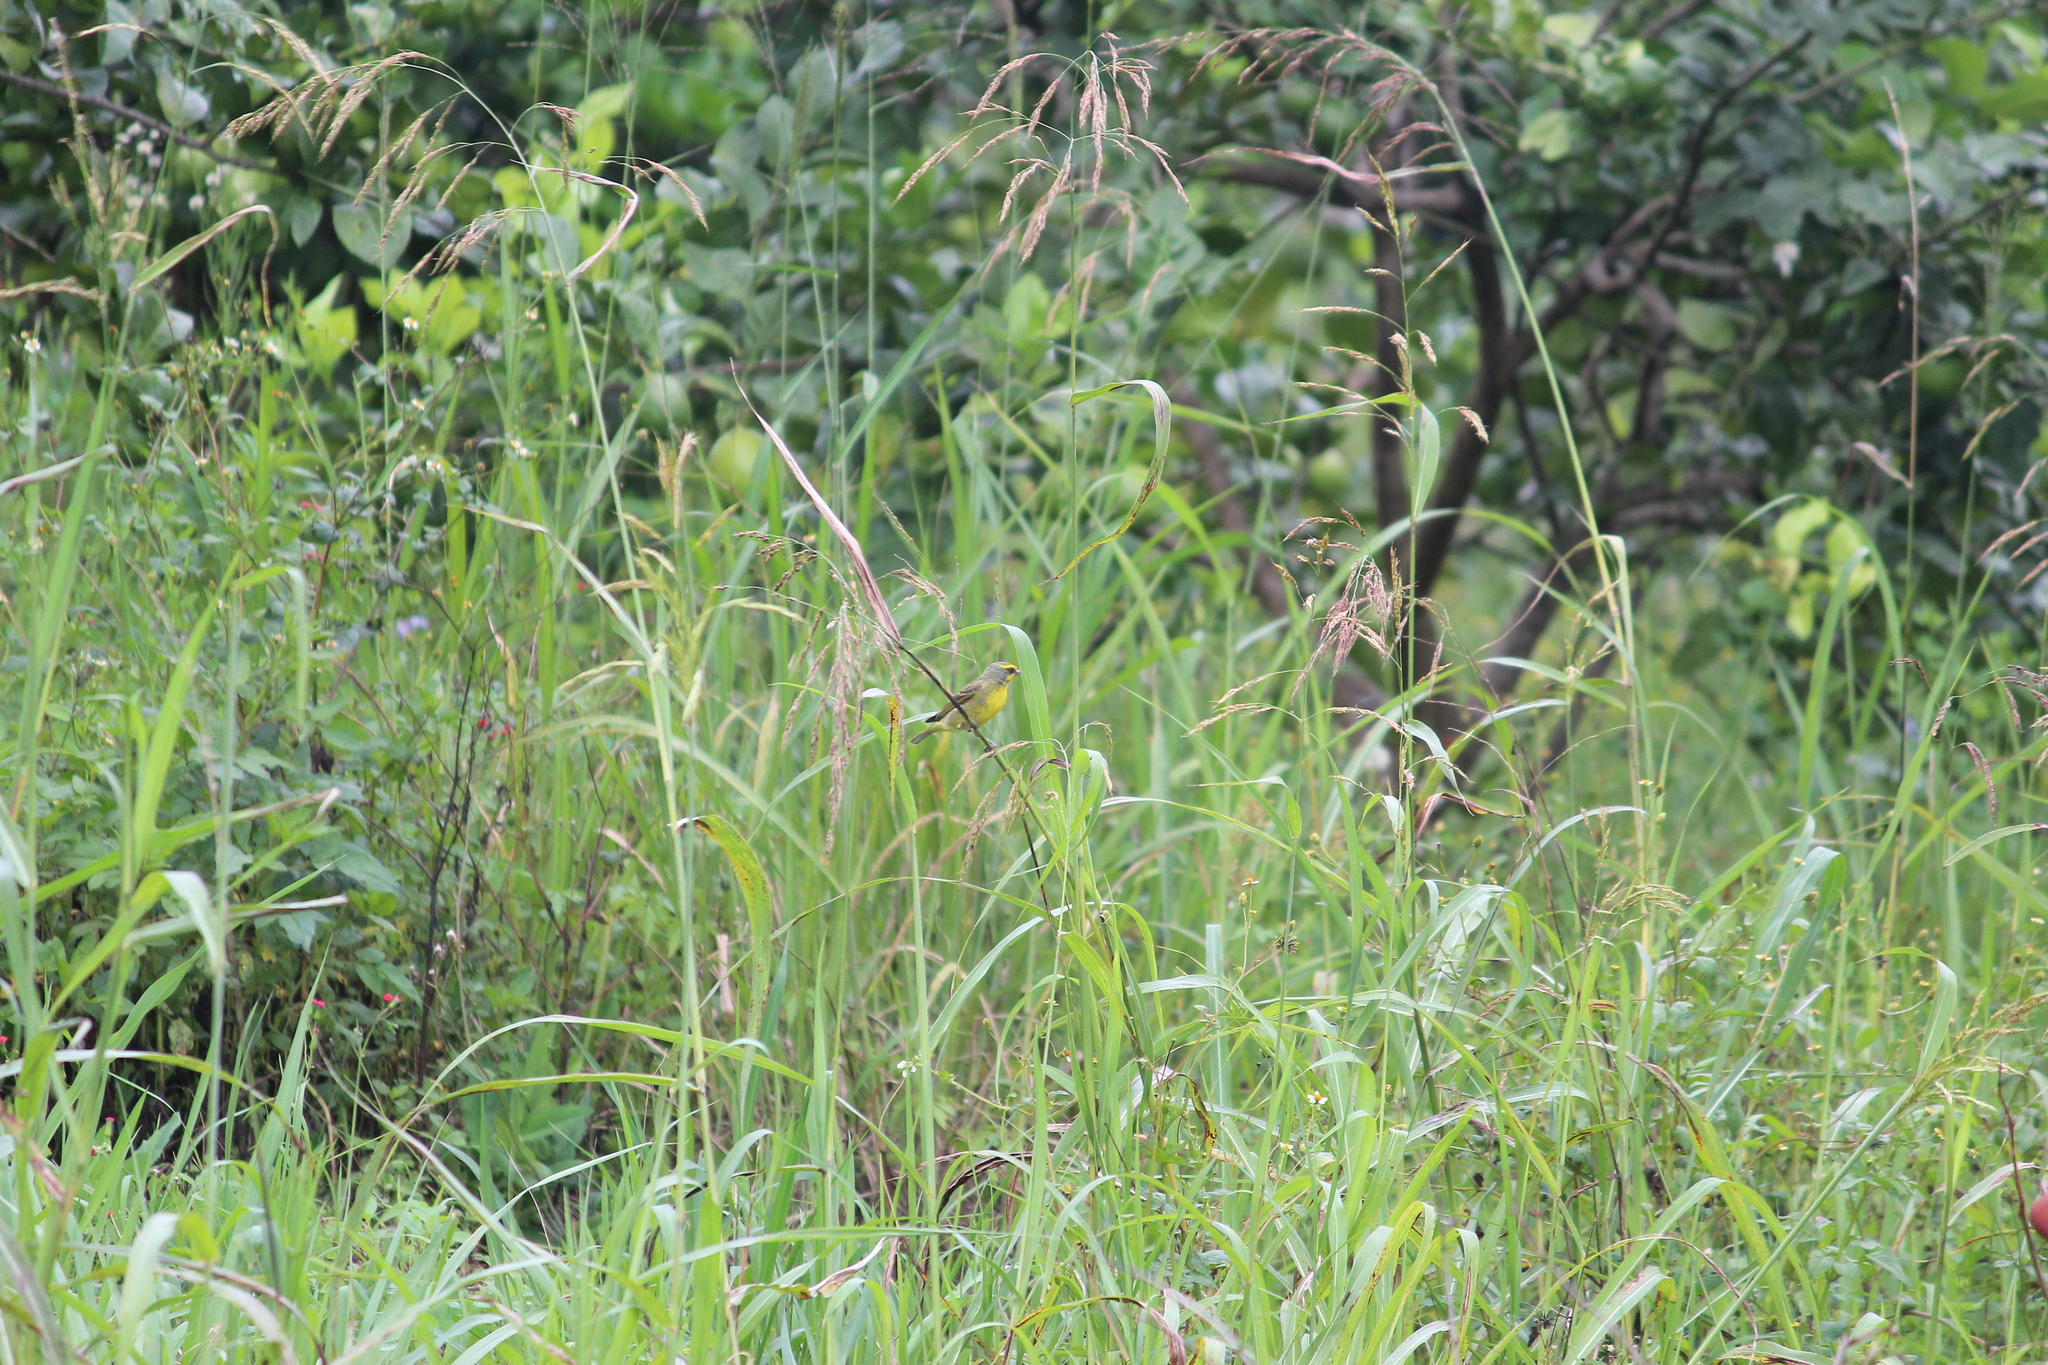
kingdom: Animalia
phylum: Chordata
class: Aves
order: Passeriformes
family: Fringillidae
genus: Crithagra
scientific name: Crithagra mozambica
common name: Yellow-fronted canary
